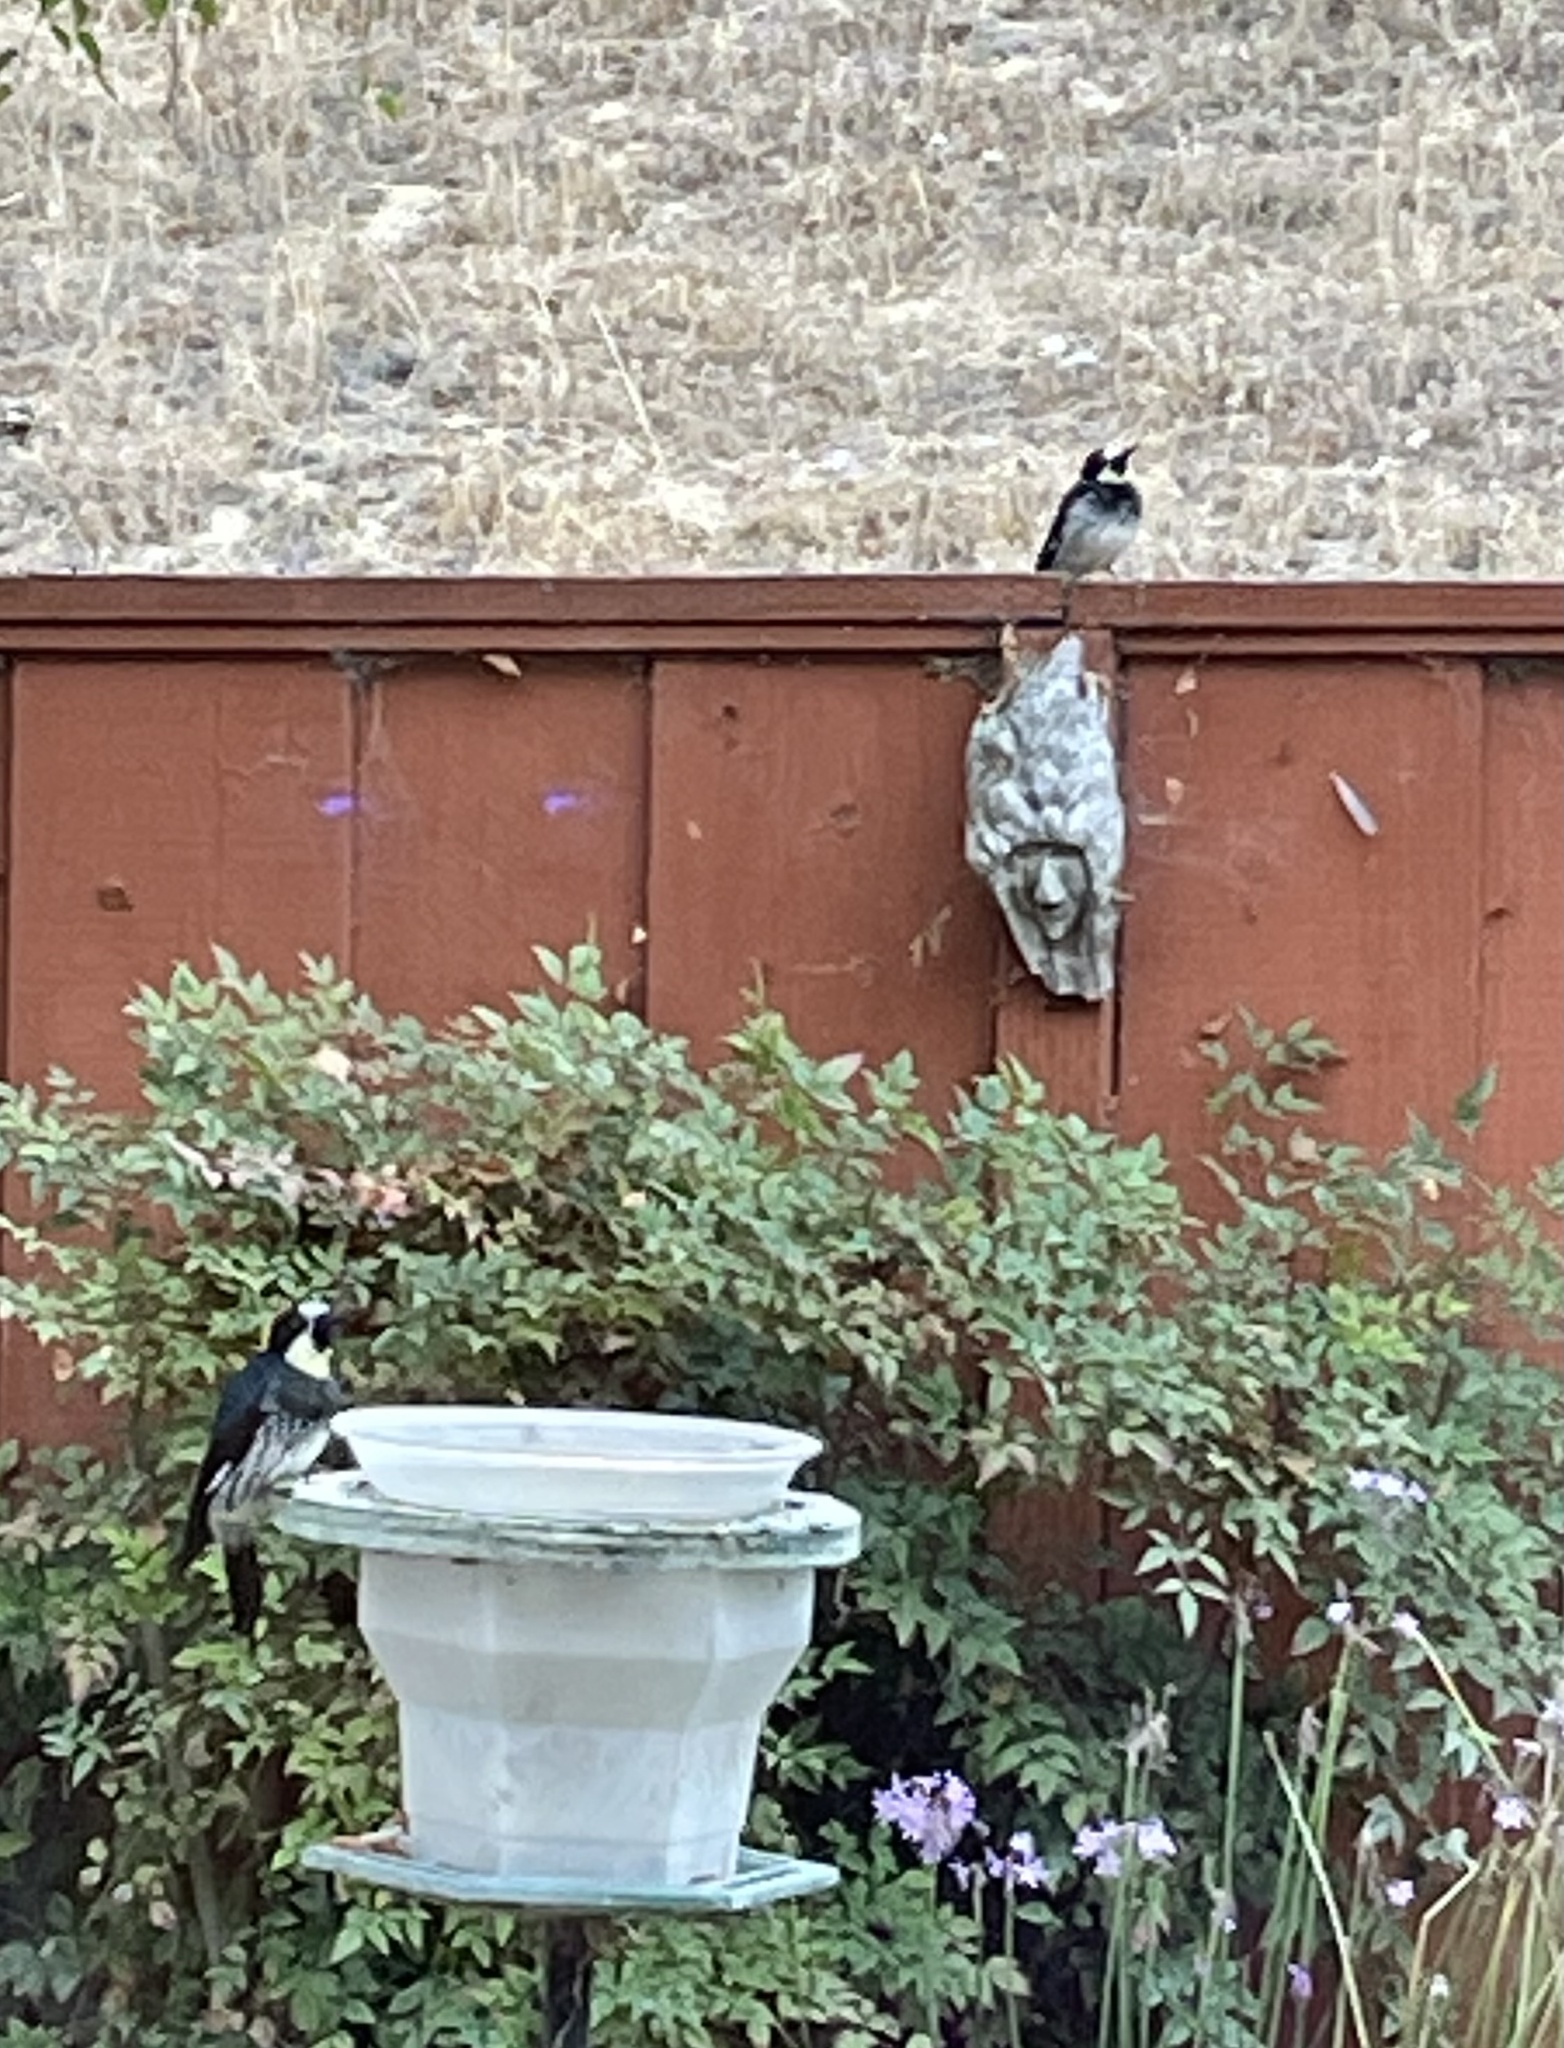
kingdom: Animalia
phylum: Chordata
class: Aves
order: Piciformes
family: Picidae
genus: Melanerpes
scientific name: Melanerpes formicivorus
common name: Acorn woodpecker
